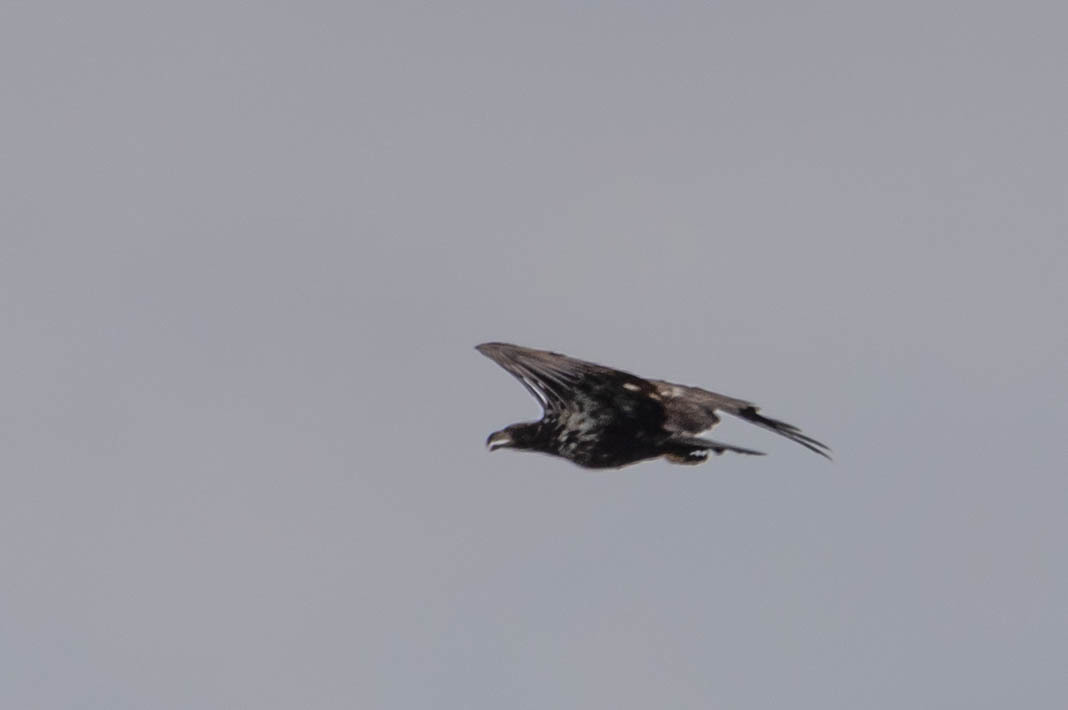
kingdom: Animalia
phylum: Chordata
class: Aves
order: Accipitriformes
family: Accipitridae
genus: Haliaeetus
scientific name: Haliaeetus leucocephalus
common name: Bald eagle
